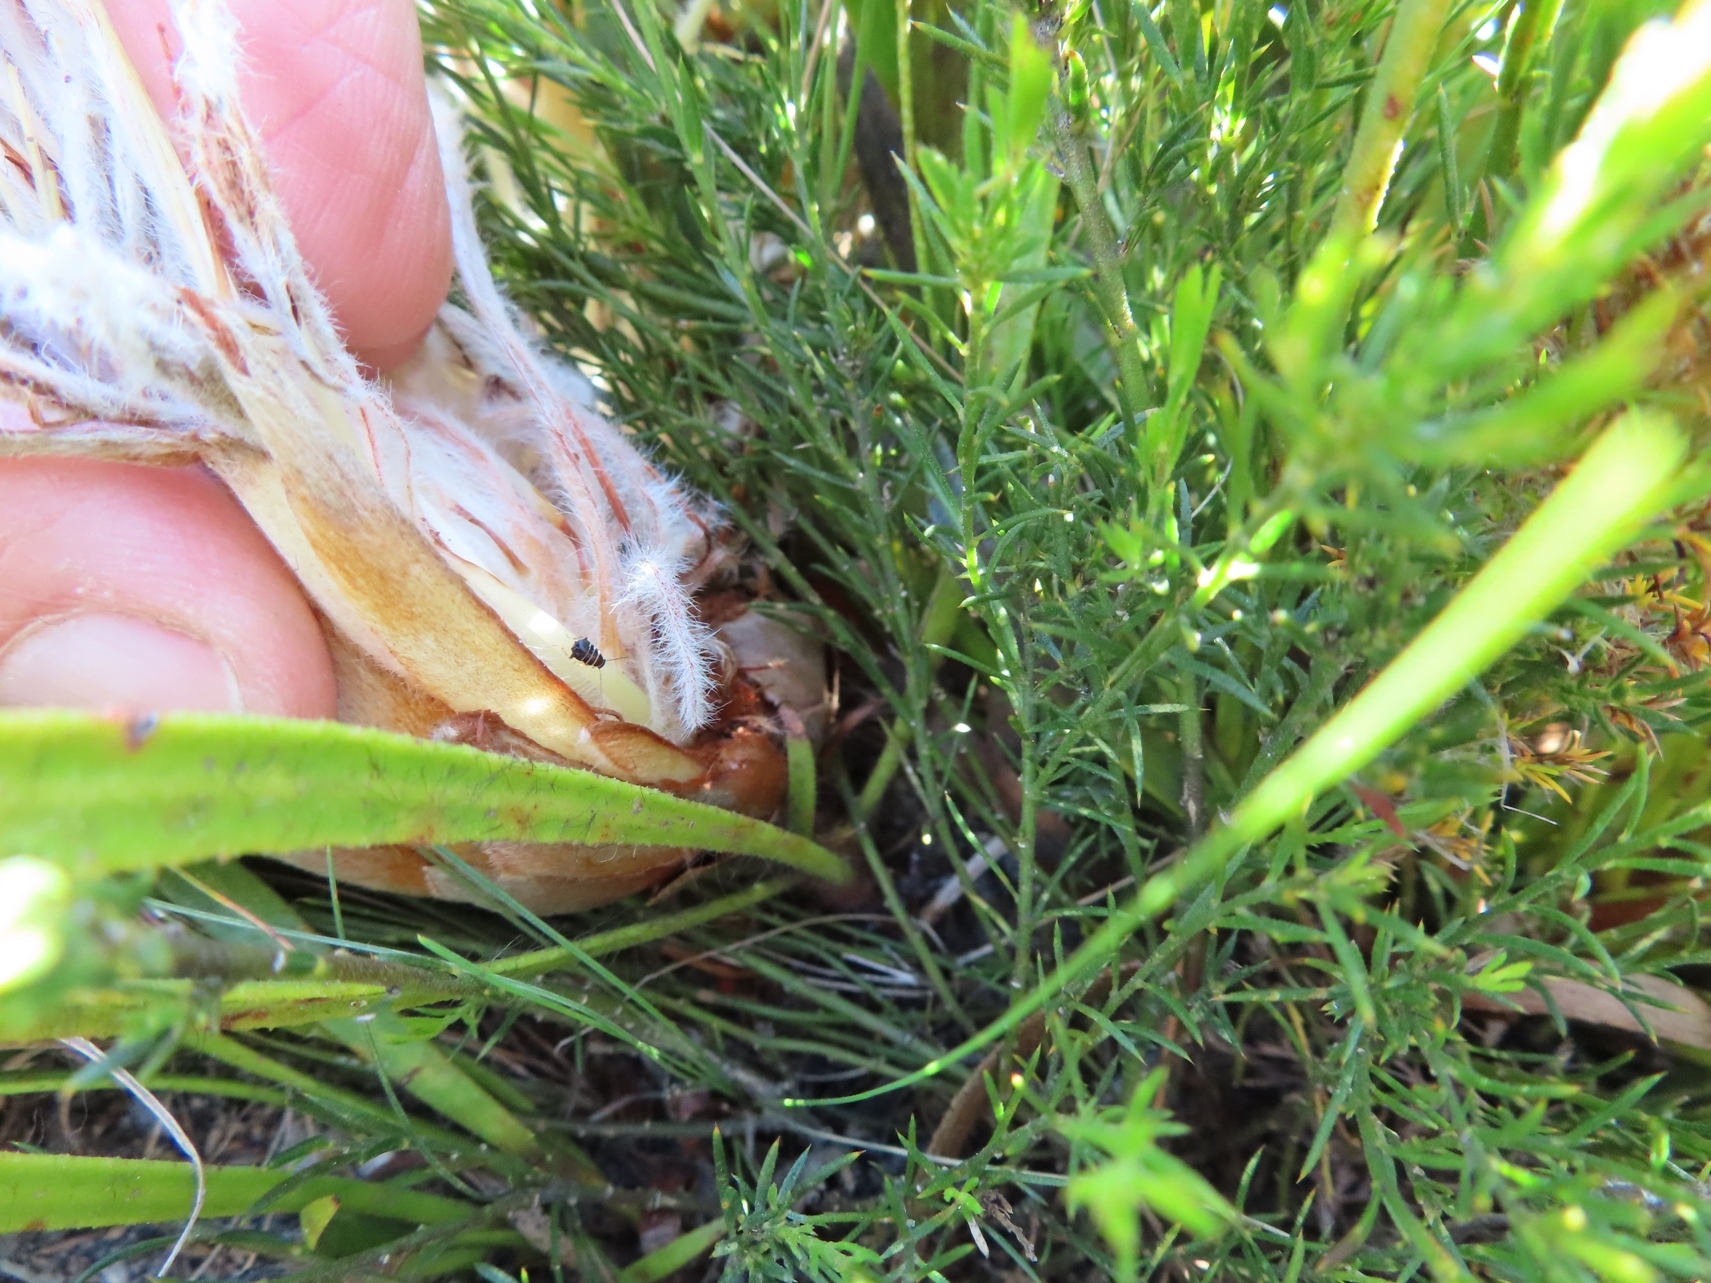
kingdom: Plantae
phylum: Tracheophyta
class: Magnoliopsida
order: Proteales
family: Proteaceae
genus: Protea
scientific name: Protea aspera
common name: Rough-leaf sugarbush
